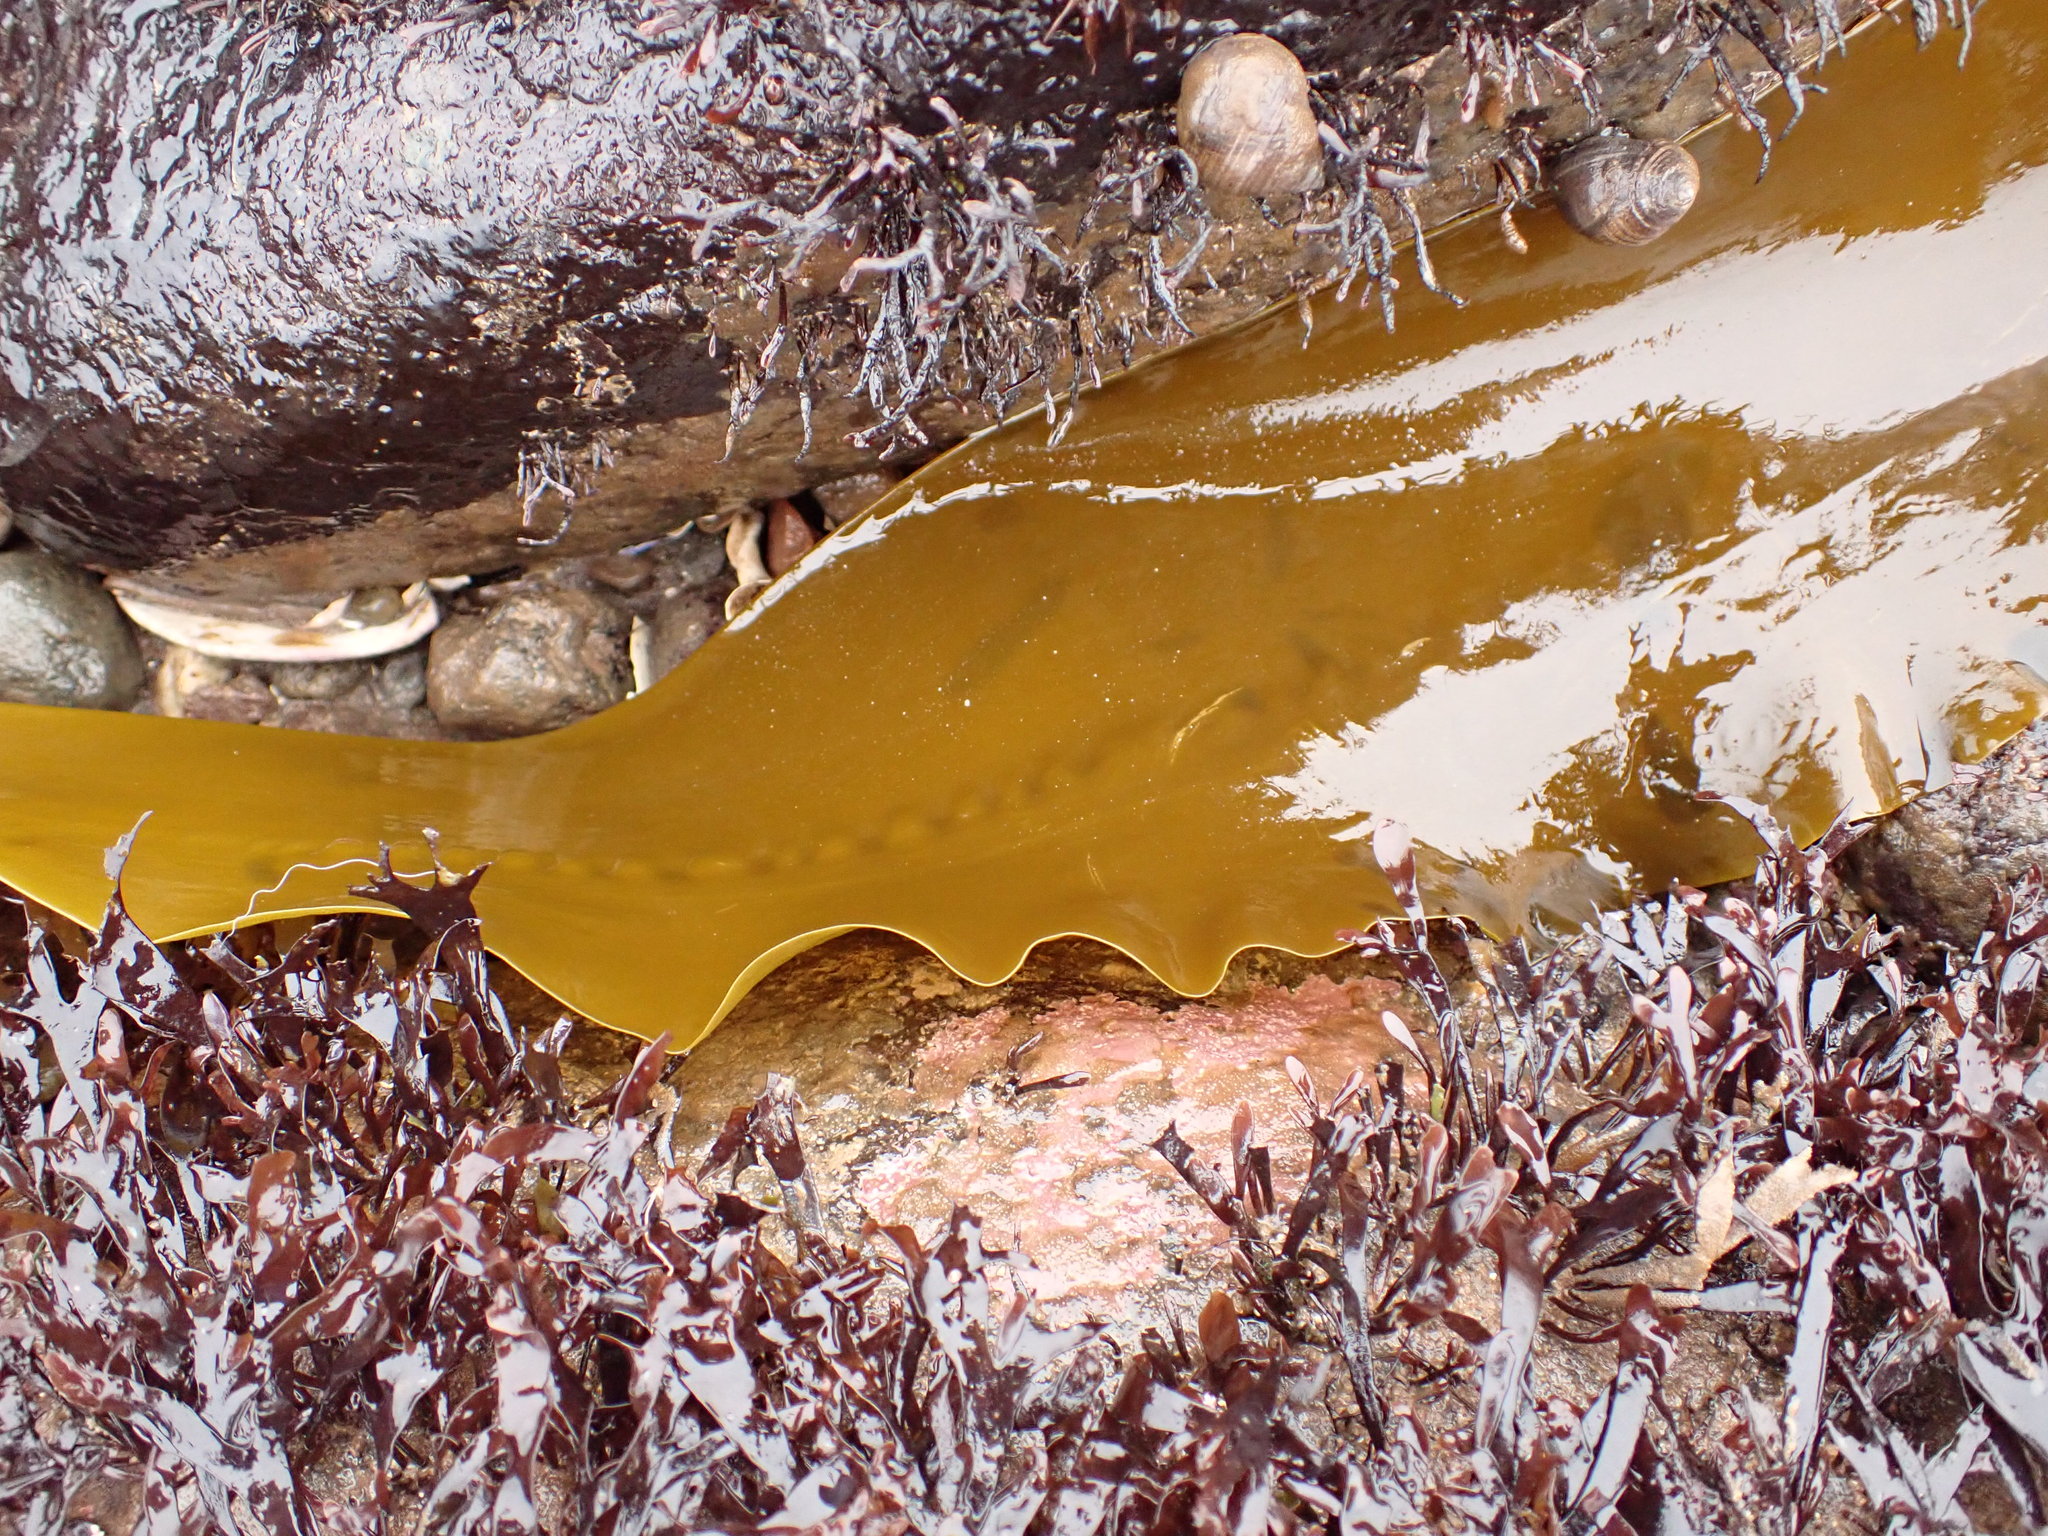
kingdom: Chromista
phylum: Ochrophyta
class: Phaeophyceae
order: Laminariales
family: Laminariaceae
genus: Saccharina
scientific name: Saccharina latissima
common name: Poor man's weather glass
